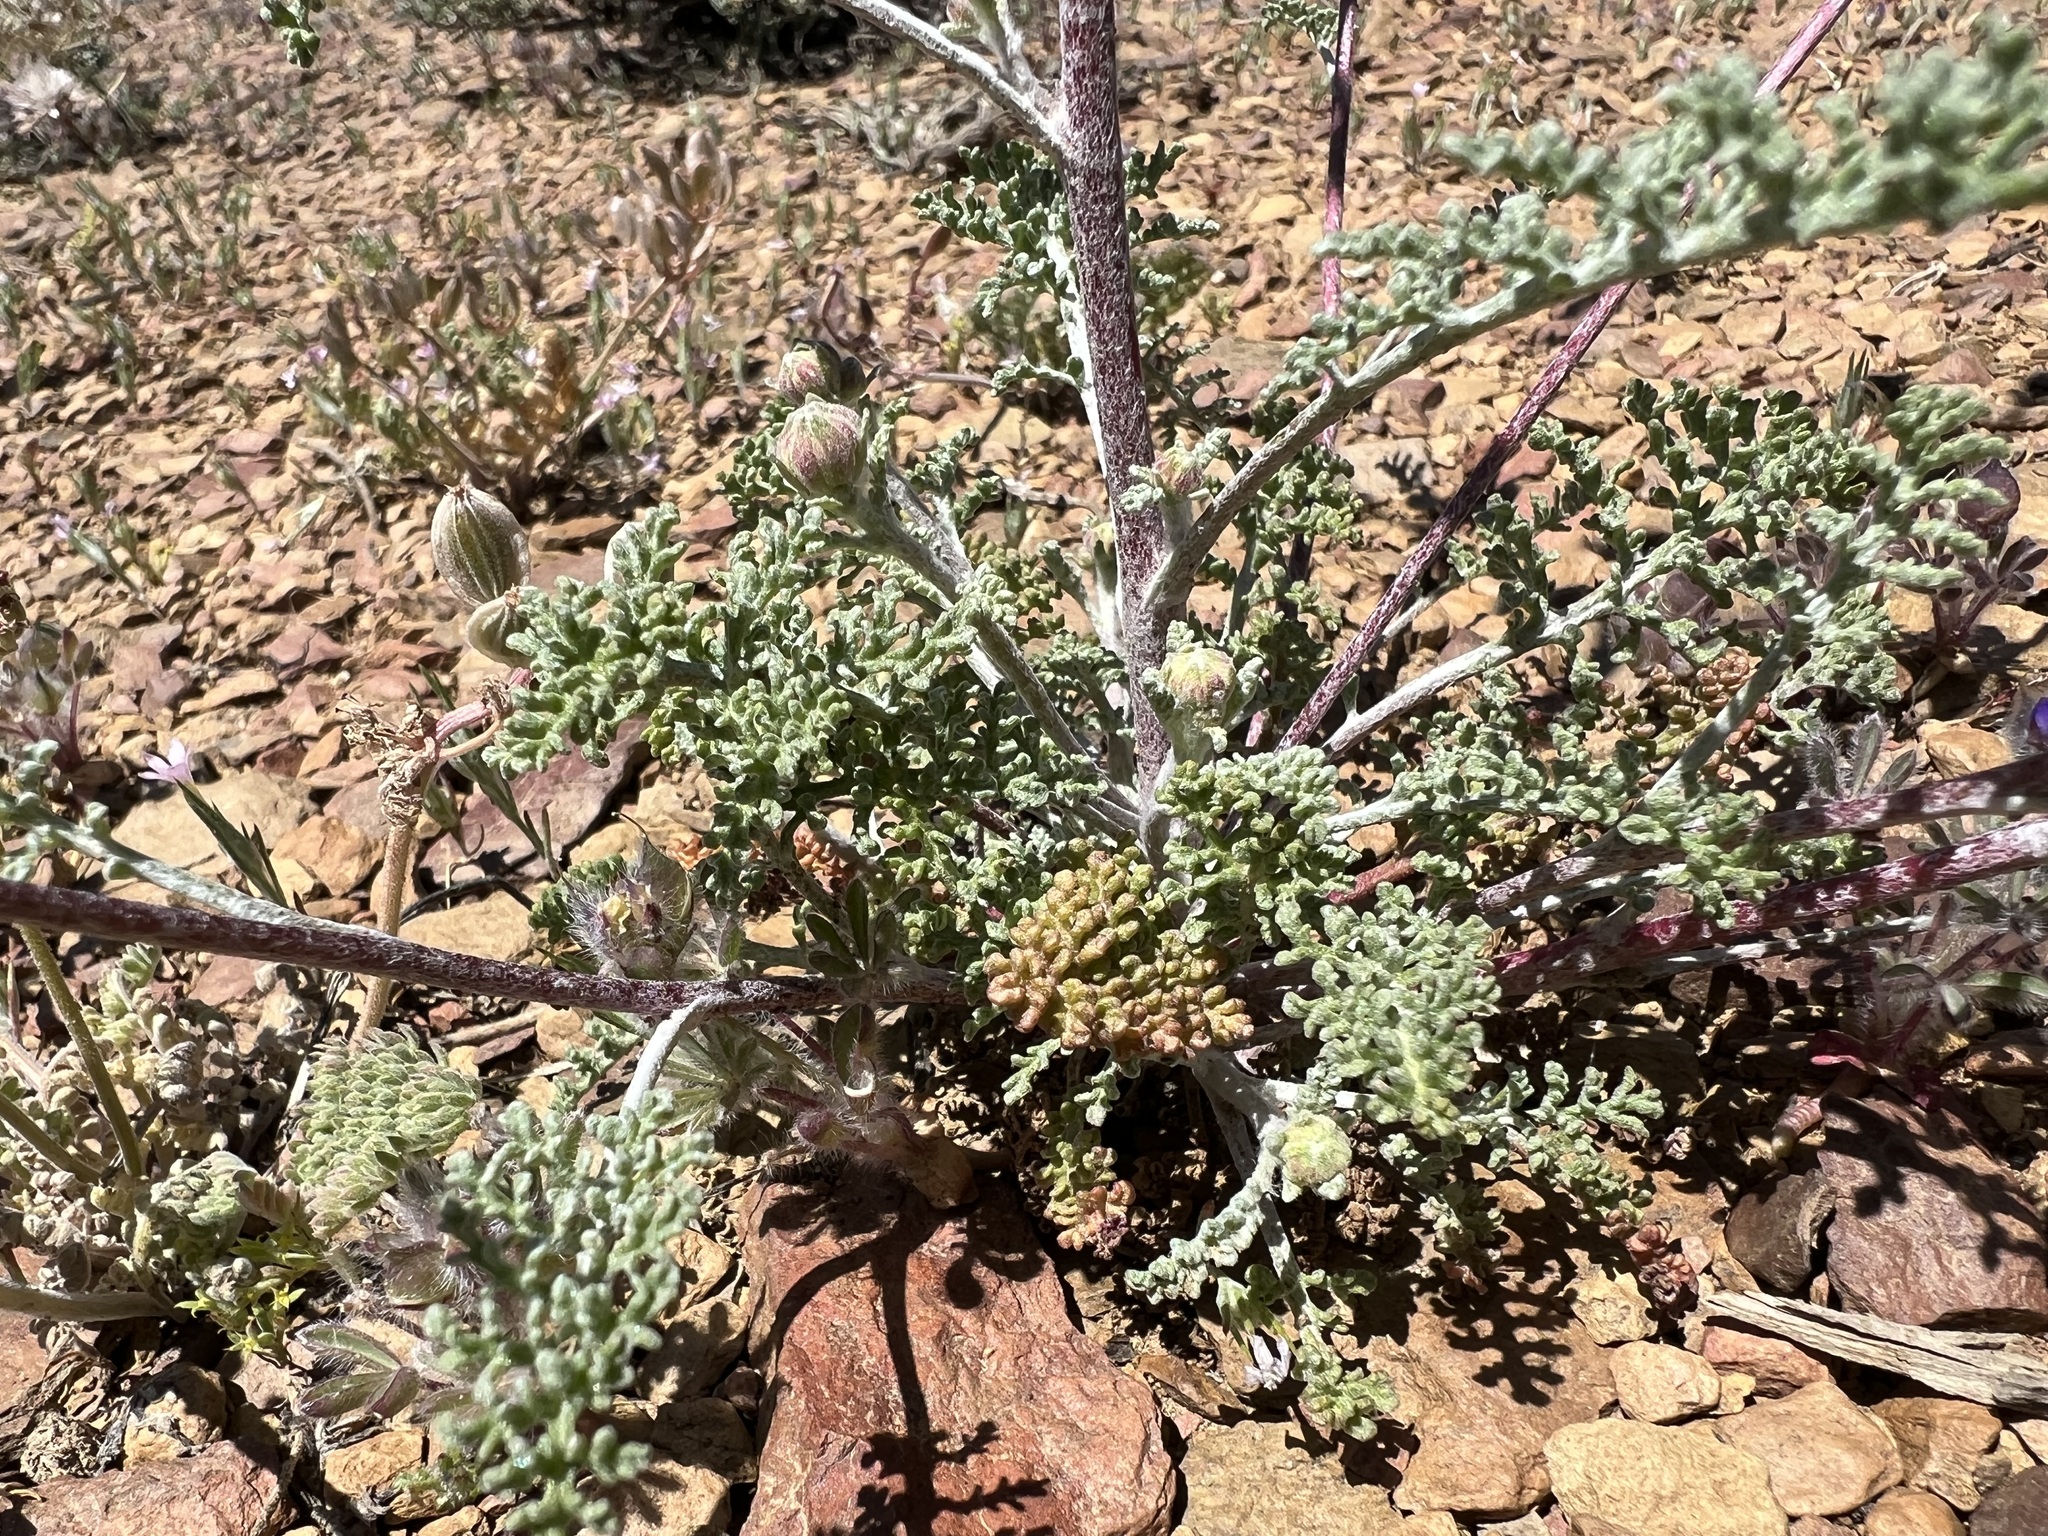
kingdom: Plantae
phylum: Tracheophyta
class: Magnoliopsida
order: Asterales
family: Asteraceae
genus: Chaenactis
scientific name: Chaenactis douglasii
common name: Hoary pincushion
